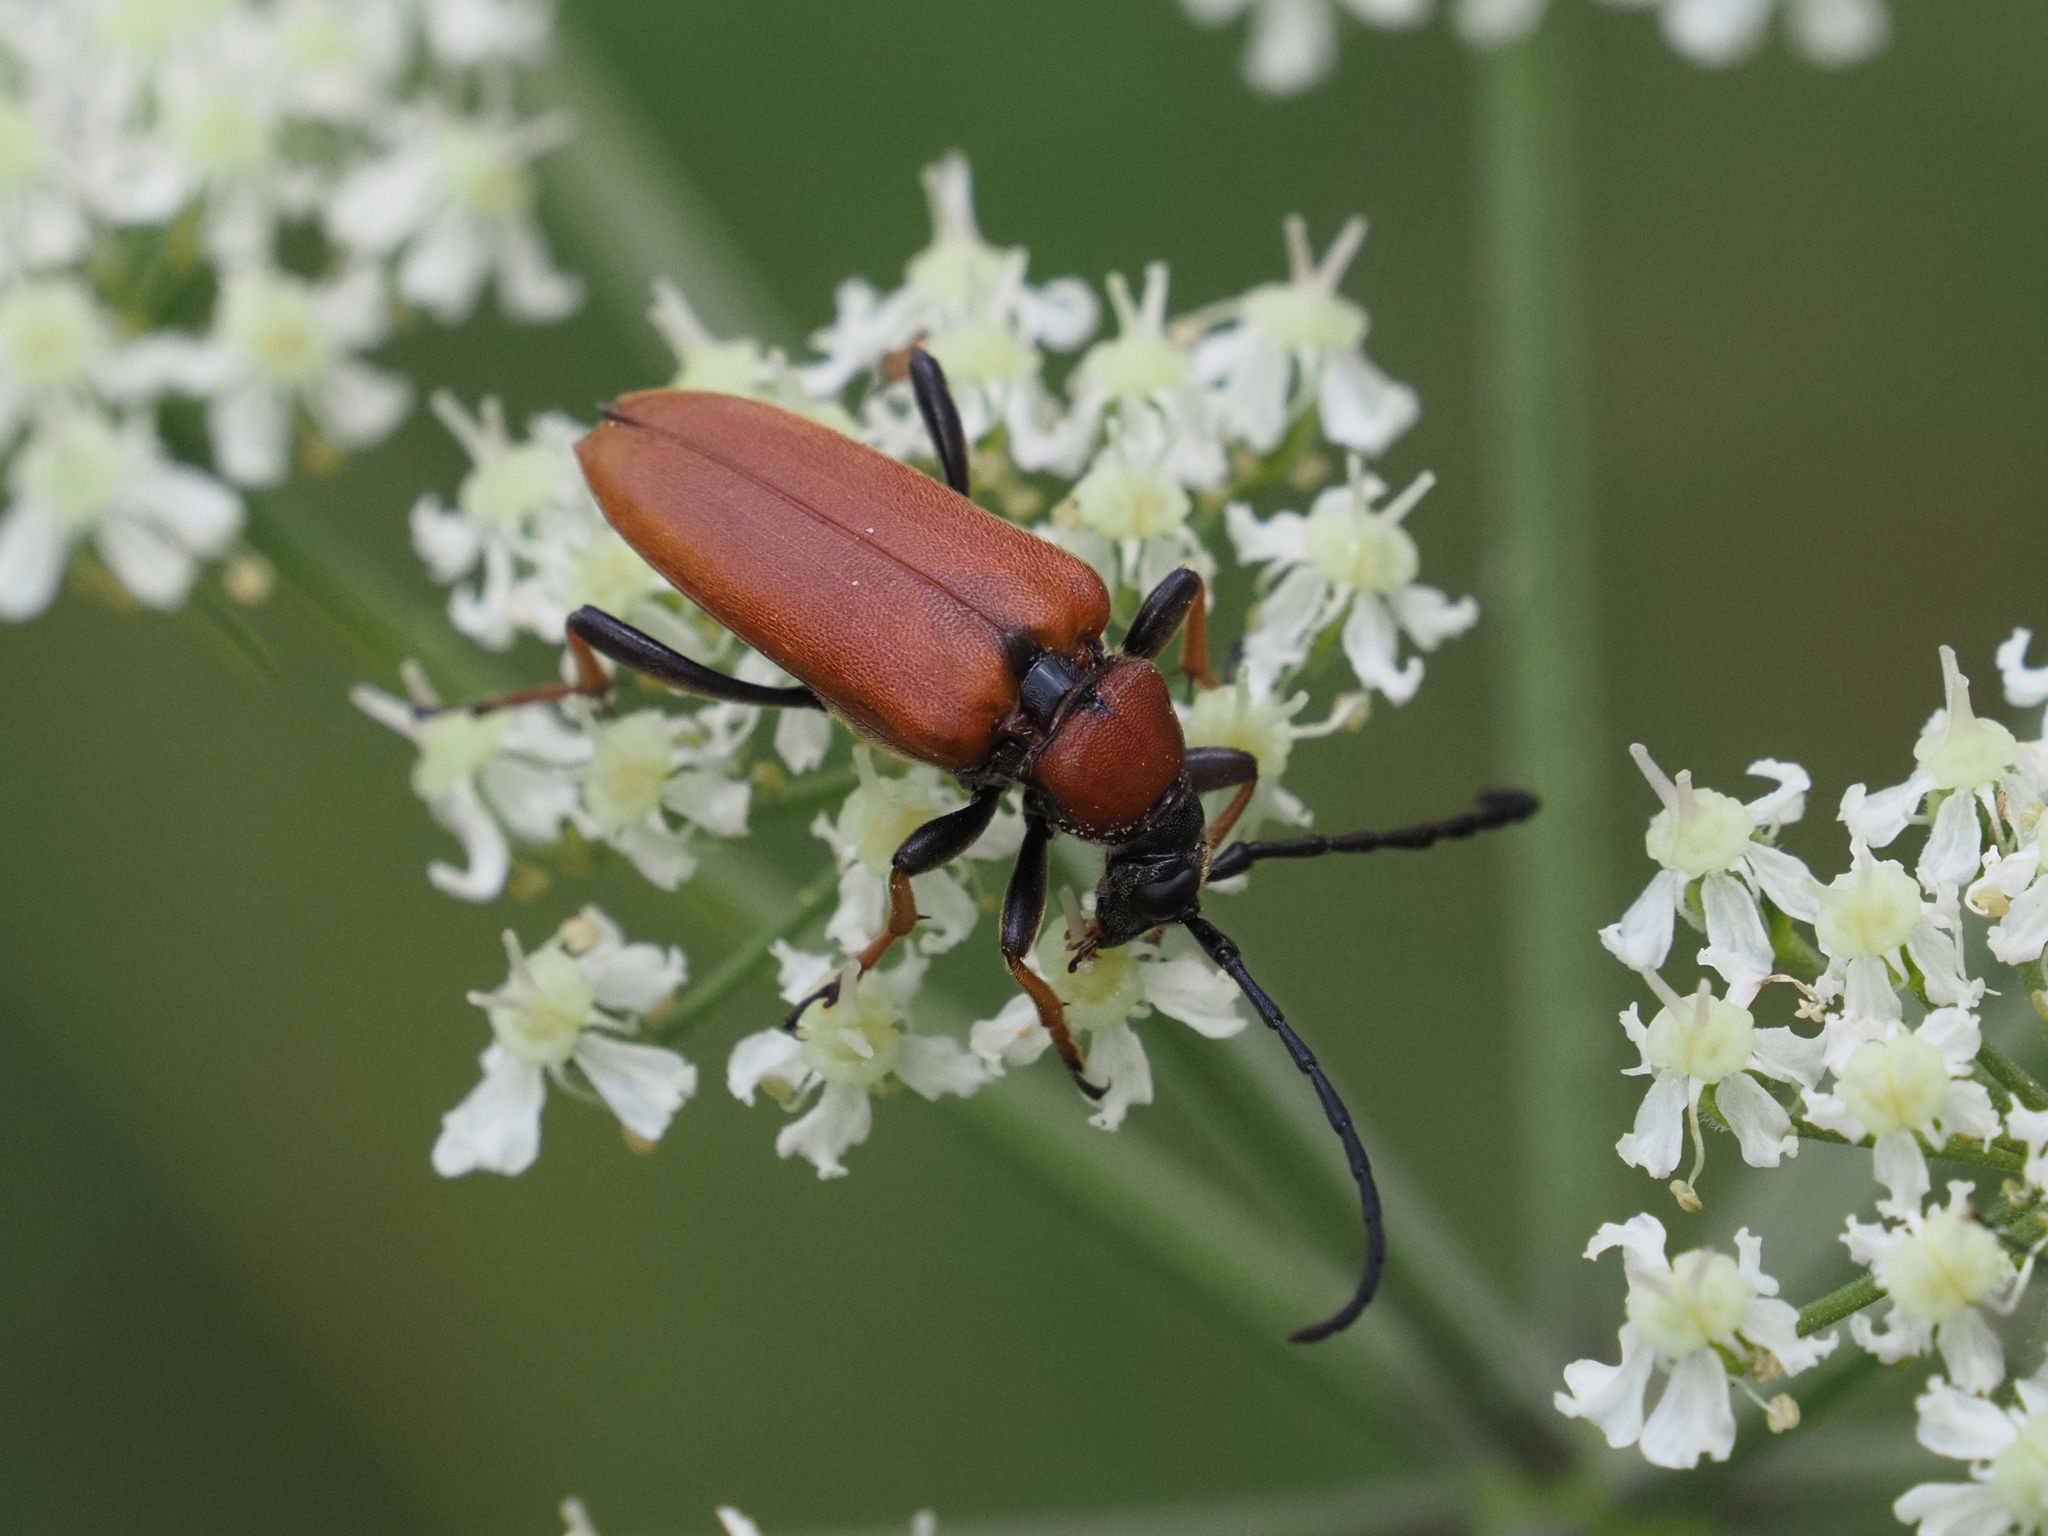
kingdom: Animalia
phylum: Arthropoda
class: Insecta
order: Coleoptera
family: Cerambycidae
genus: Stictoleptura
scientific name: Stictoleptura rubra
